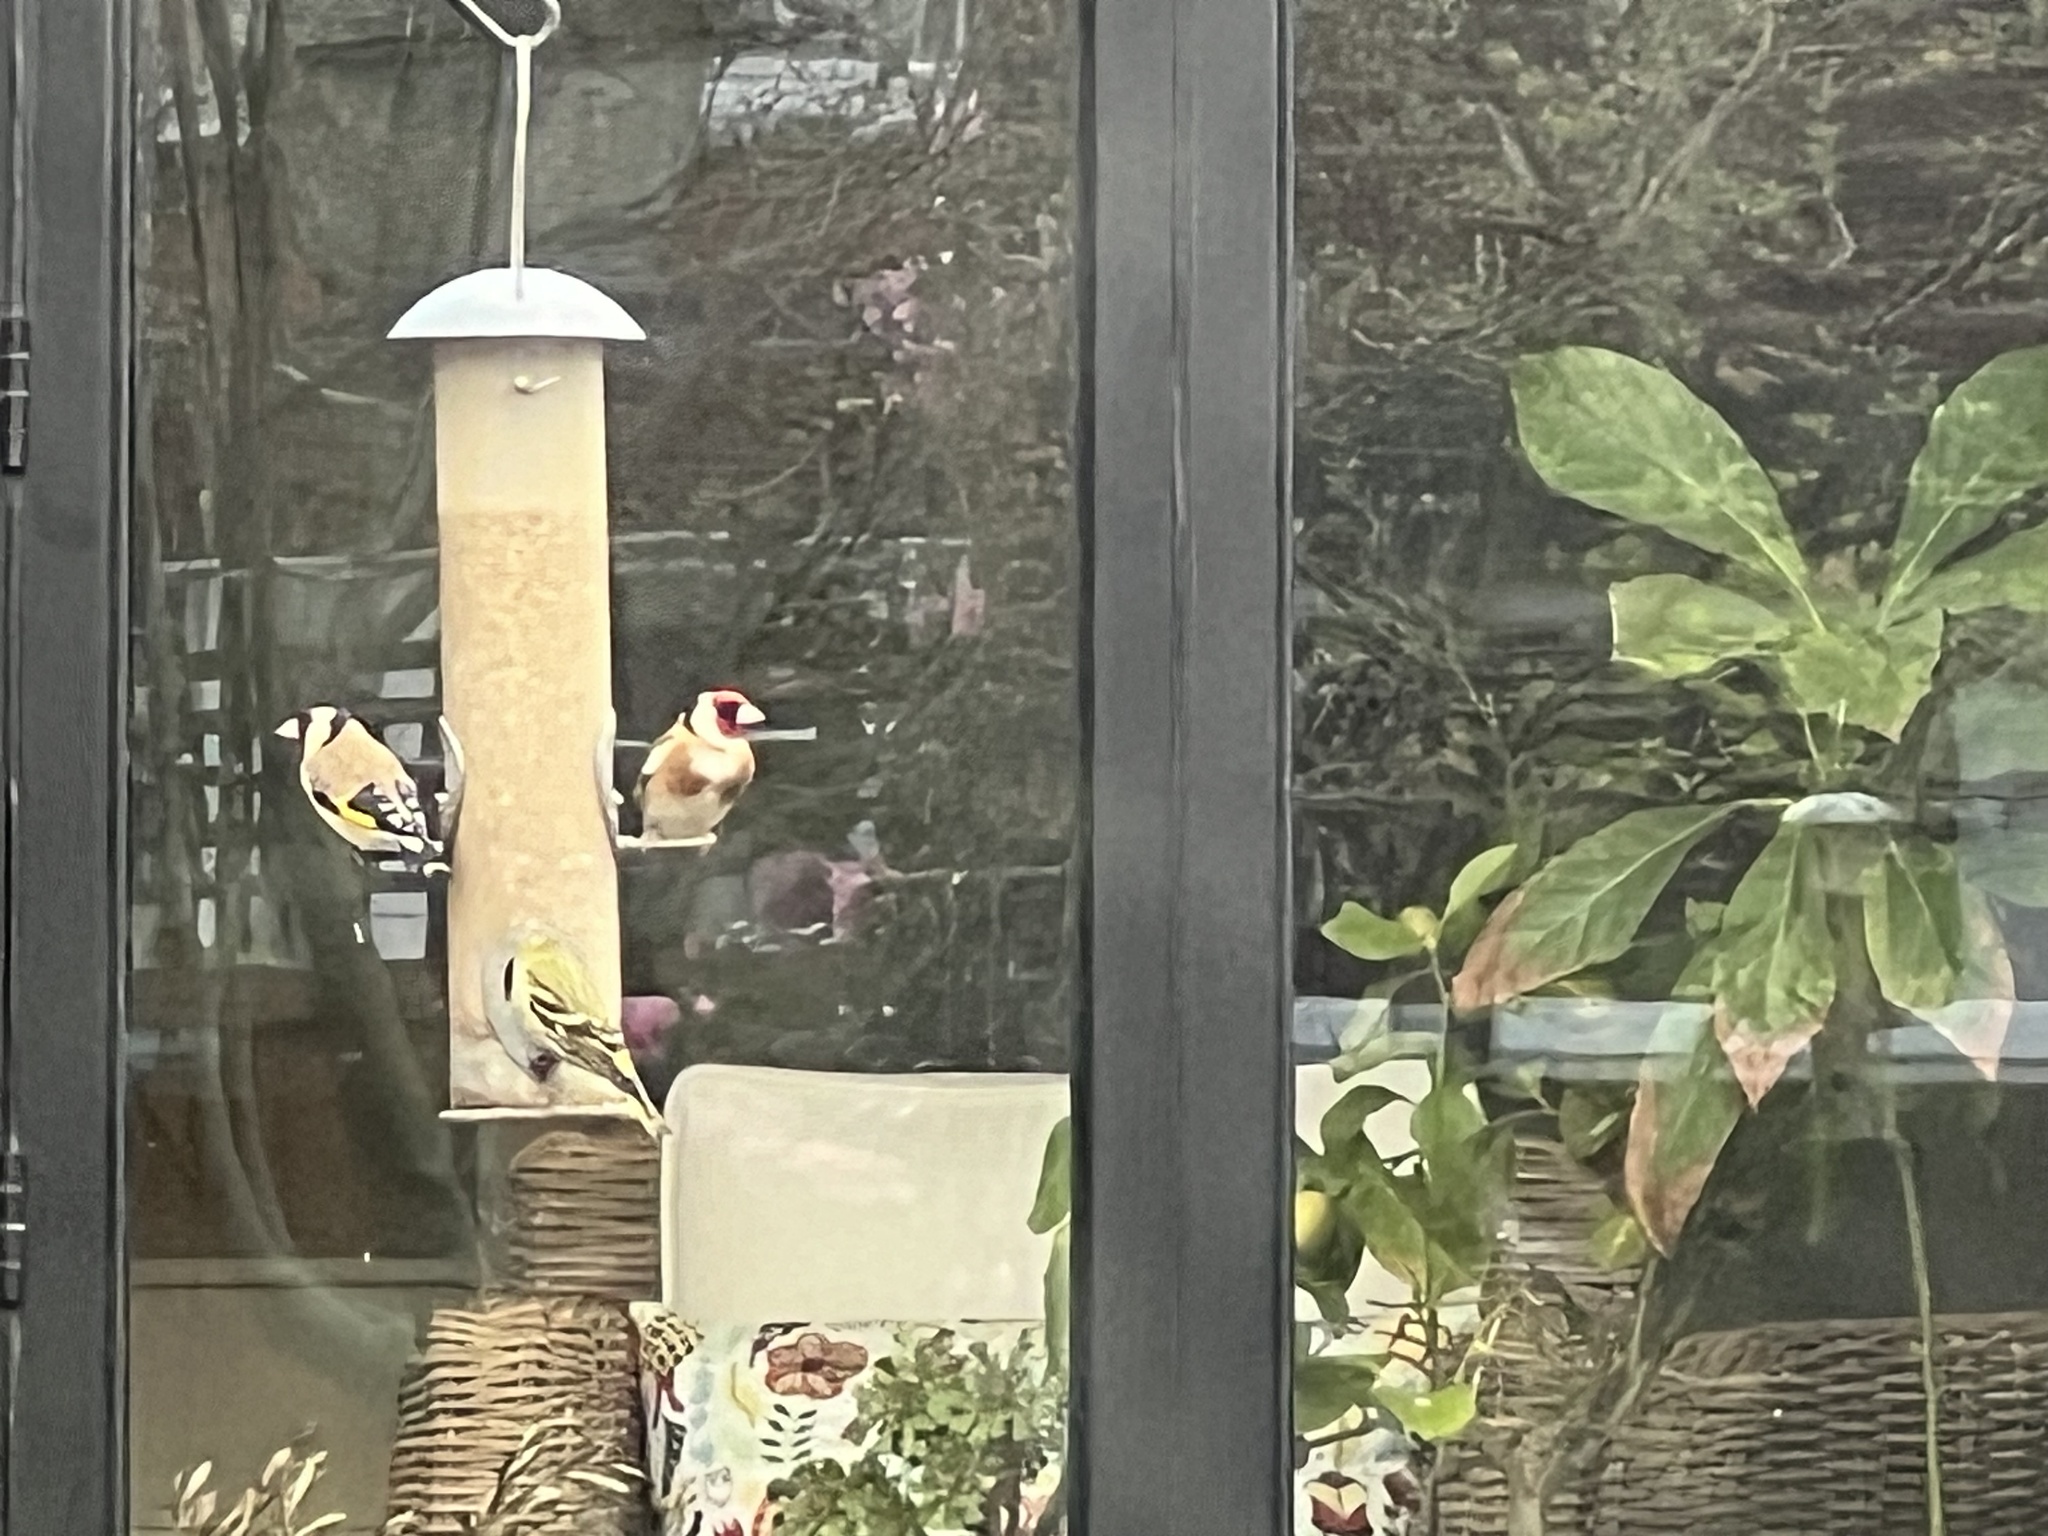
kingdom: Animalia
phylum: Chordata
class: Aves
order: Passeriformes
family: Fringillidae
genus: Carduelis
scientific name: Carduelis carduelis
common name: European goldfinch
